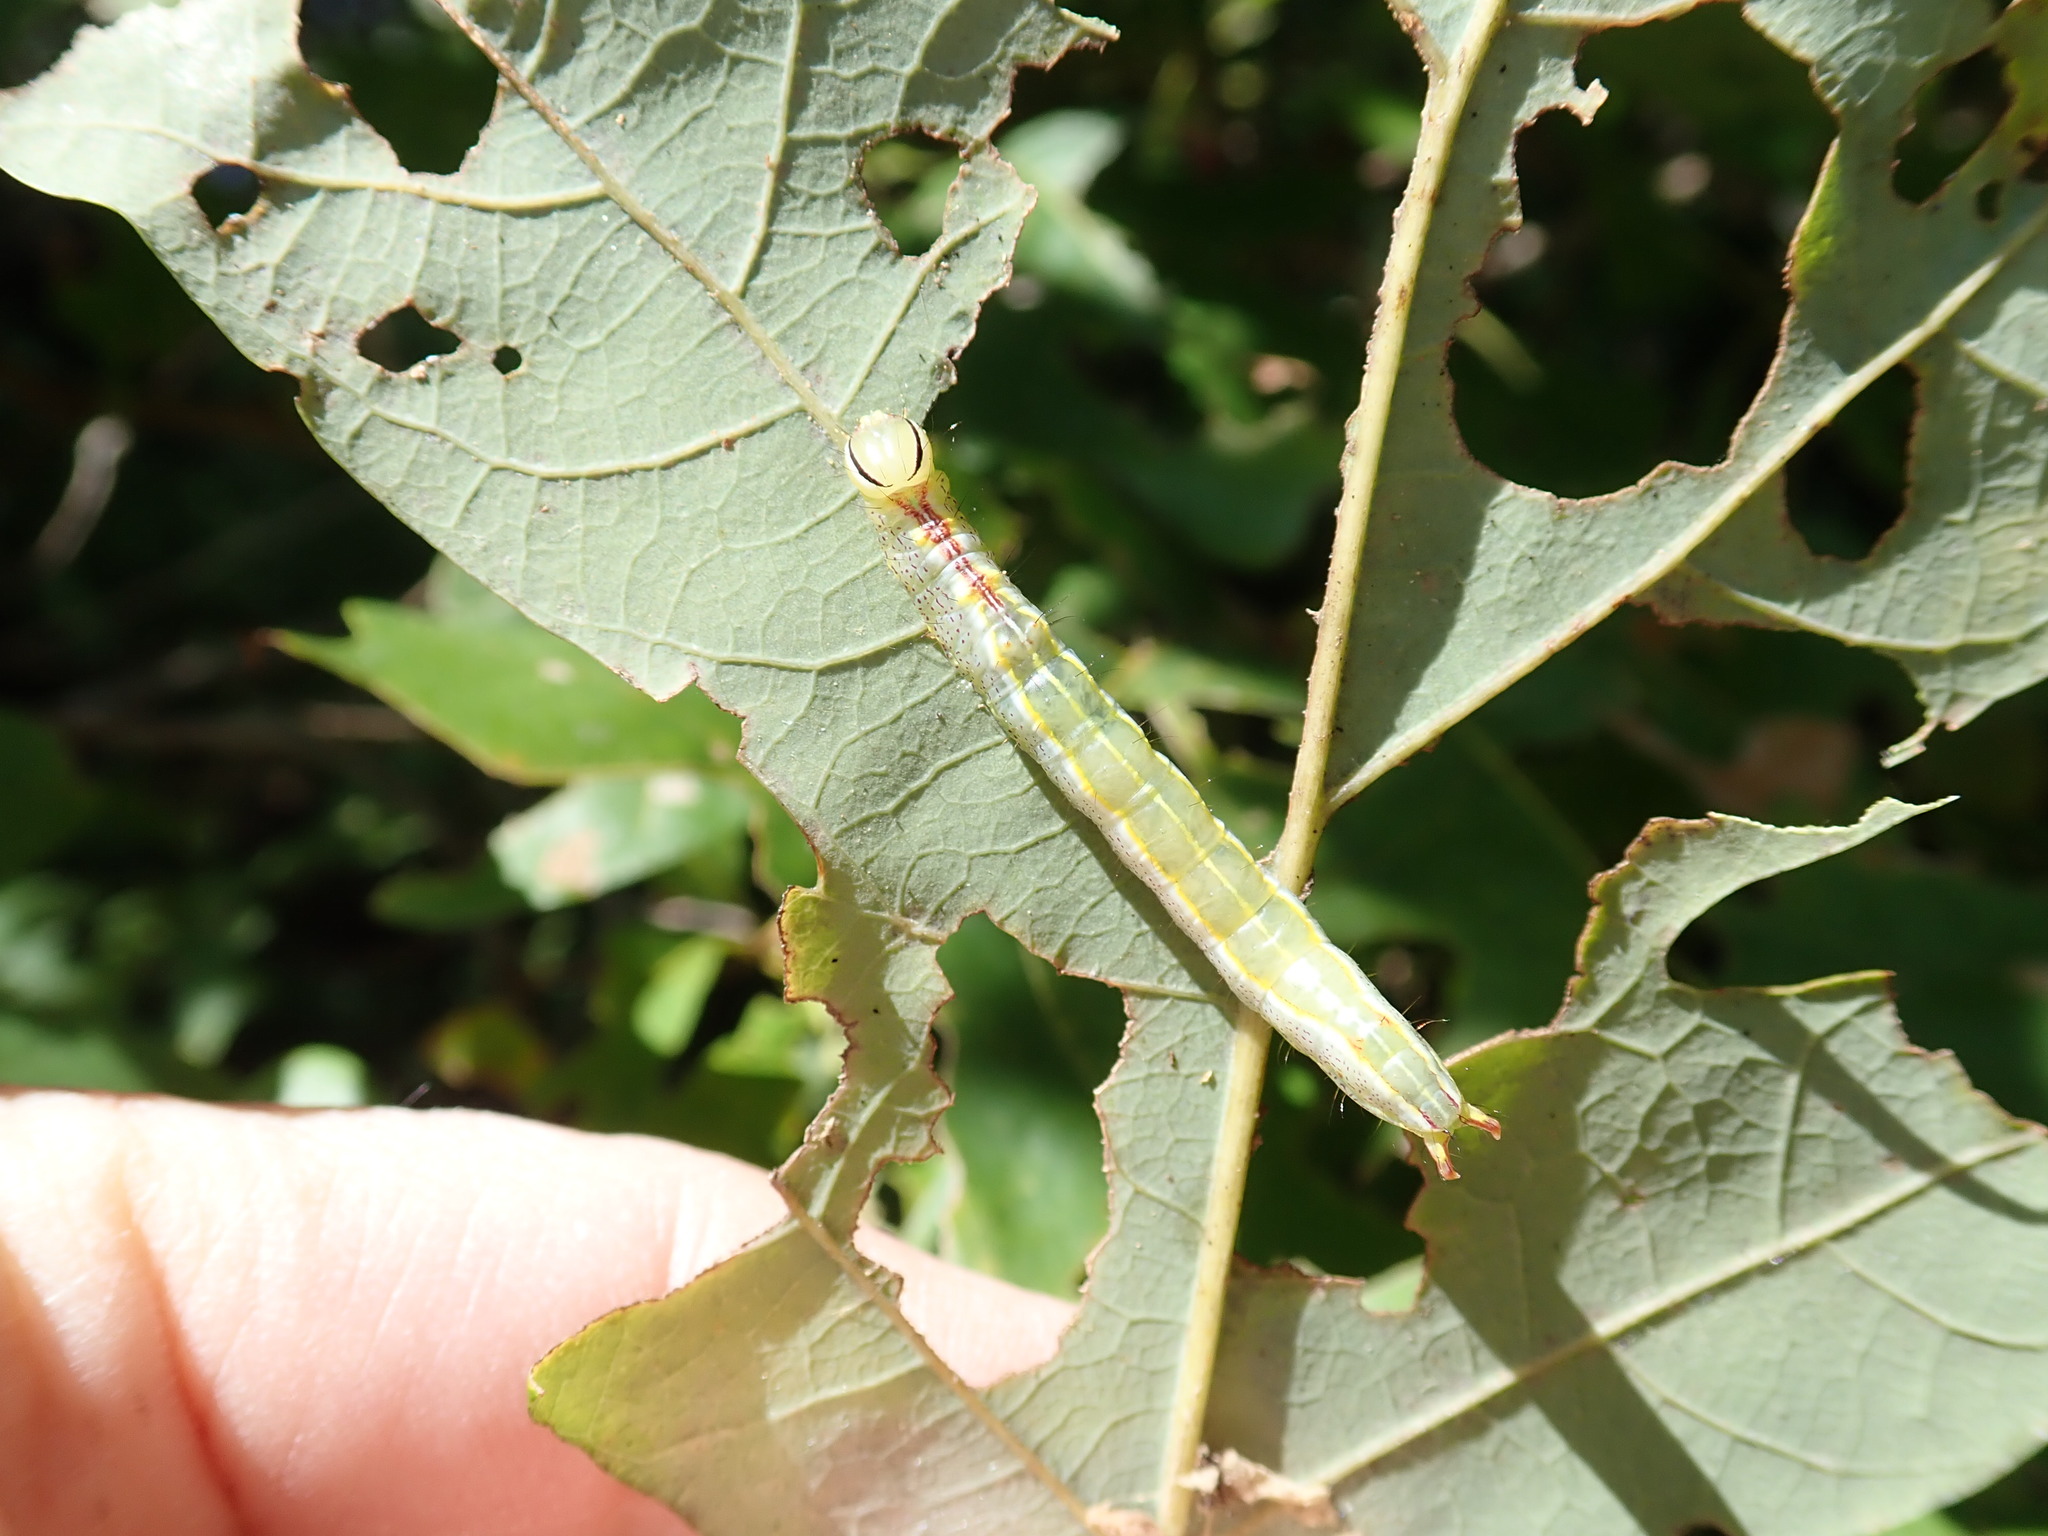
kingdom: Animalia
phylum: Arthropoda
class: Insecta
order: Lepidoptera
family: Notodontidae
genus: Lochmaeus
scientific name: Lochmaeus manteo
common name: Variable oakleaf caterpillar moth
